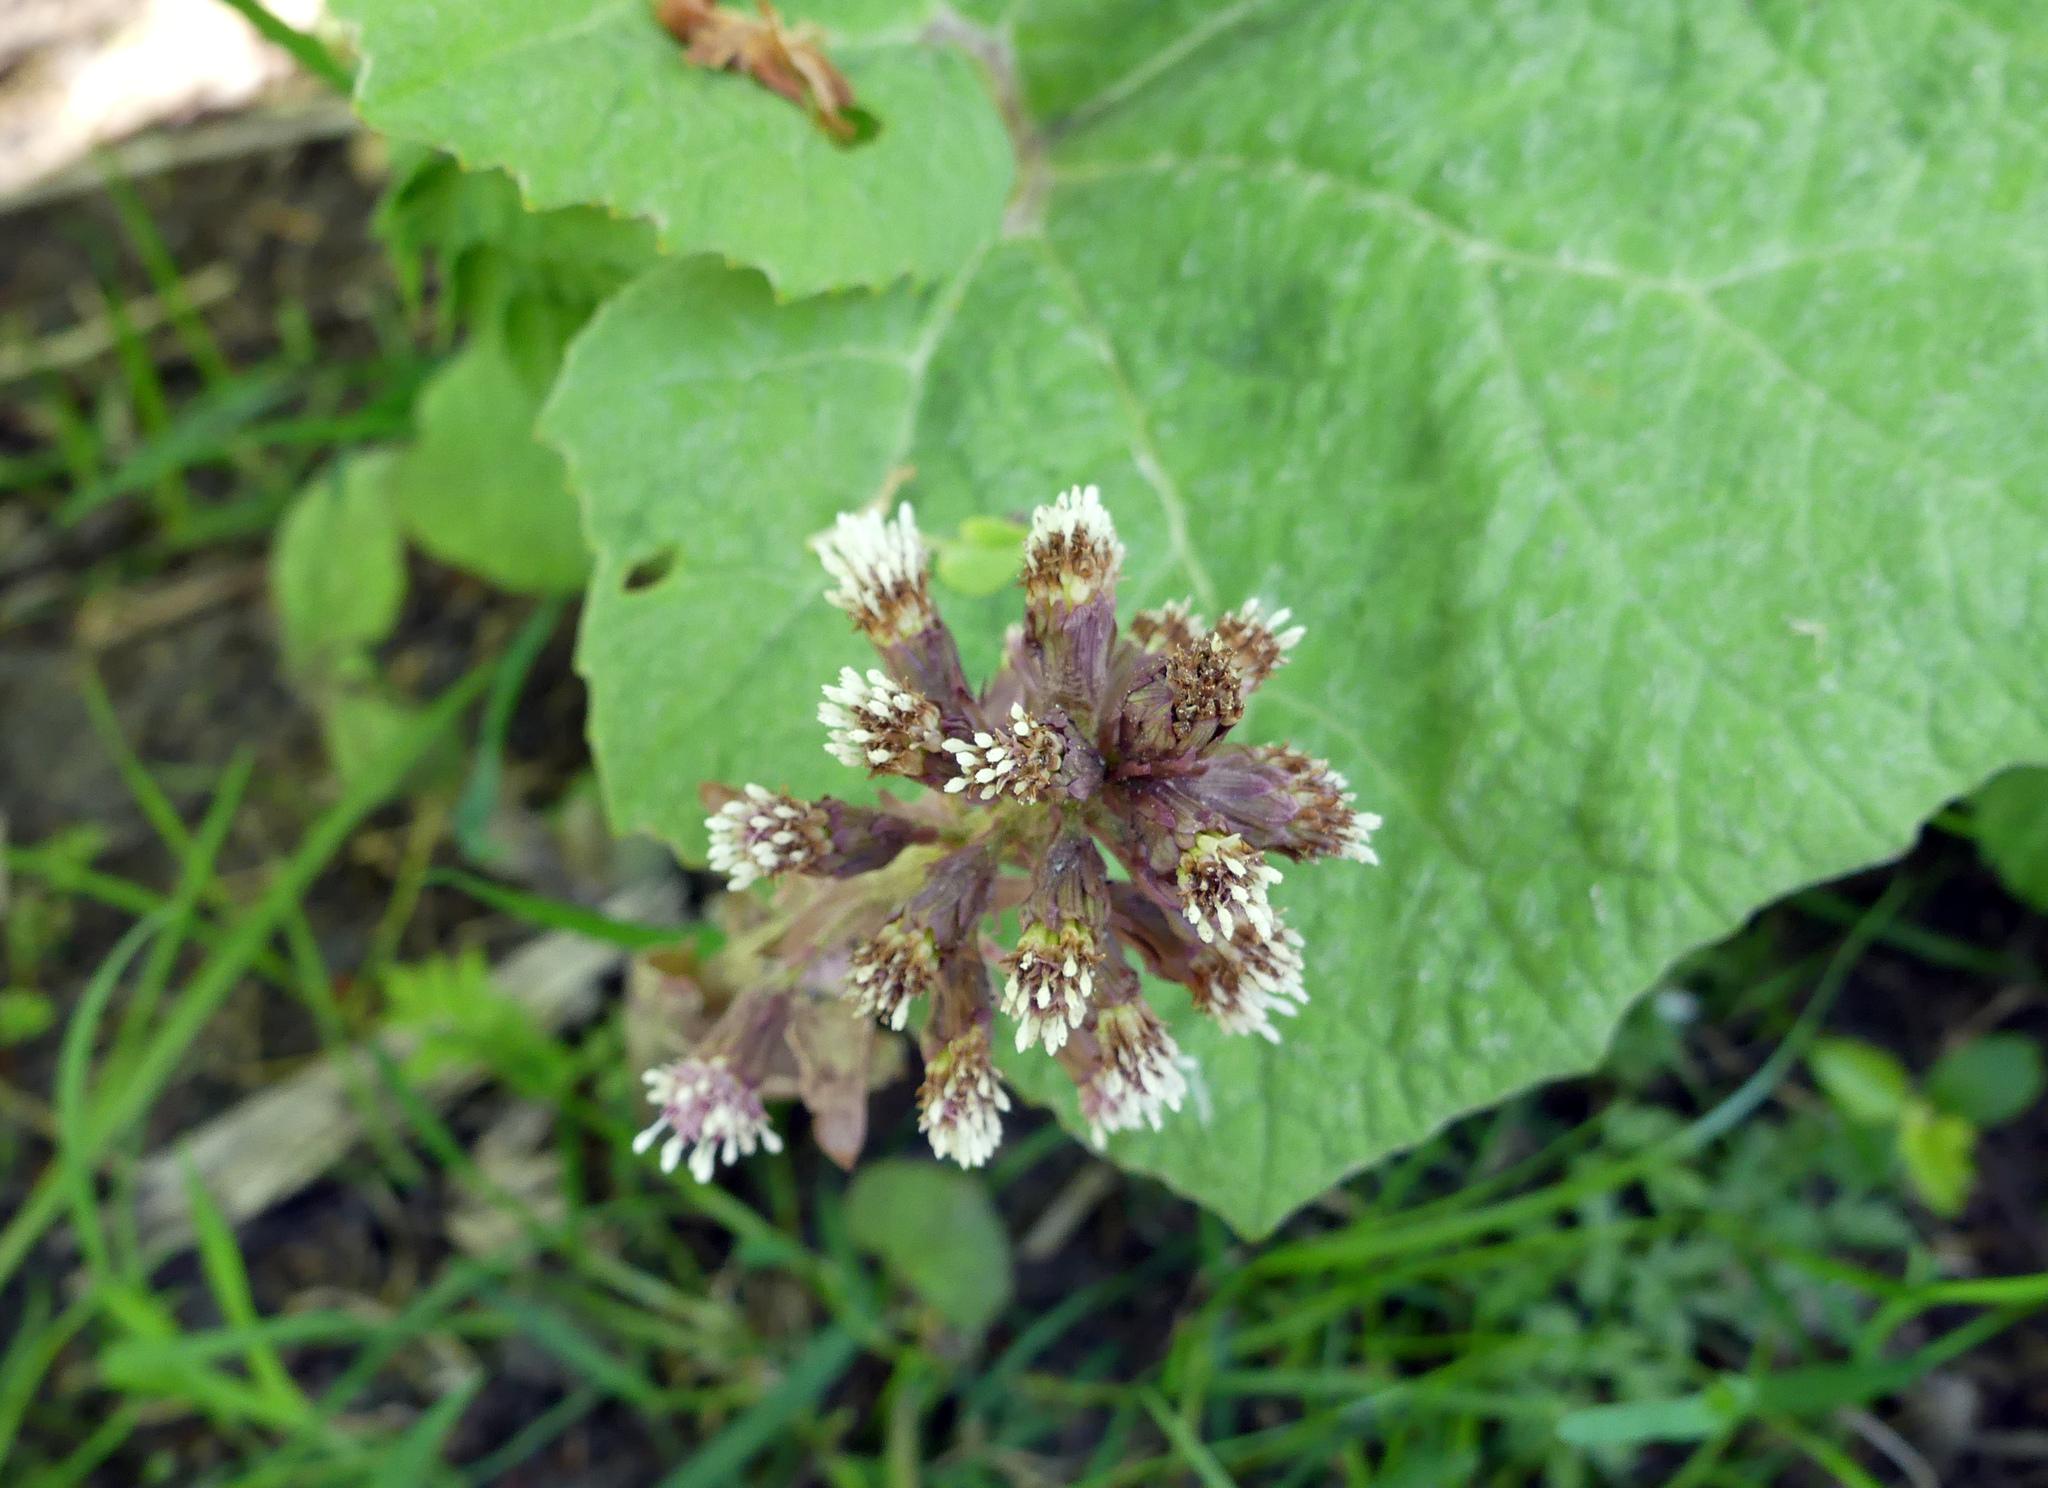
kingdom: Plantae
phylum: Tracheophyta
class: Magnoliopsida
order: Asterales
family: Asteraceae
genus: Petasites
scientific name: Petasites hybridus
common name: Butterbur
